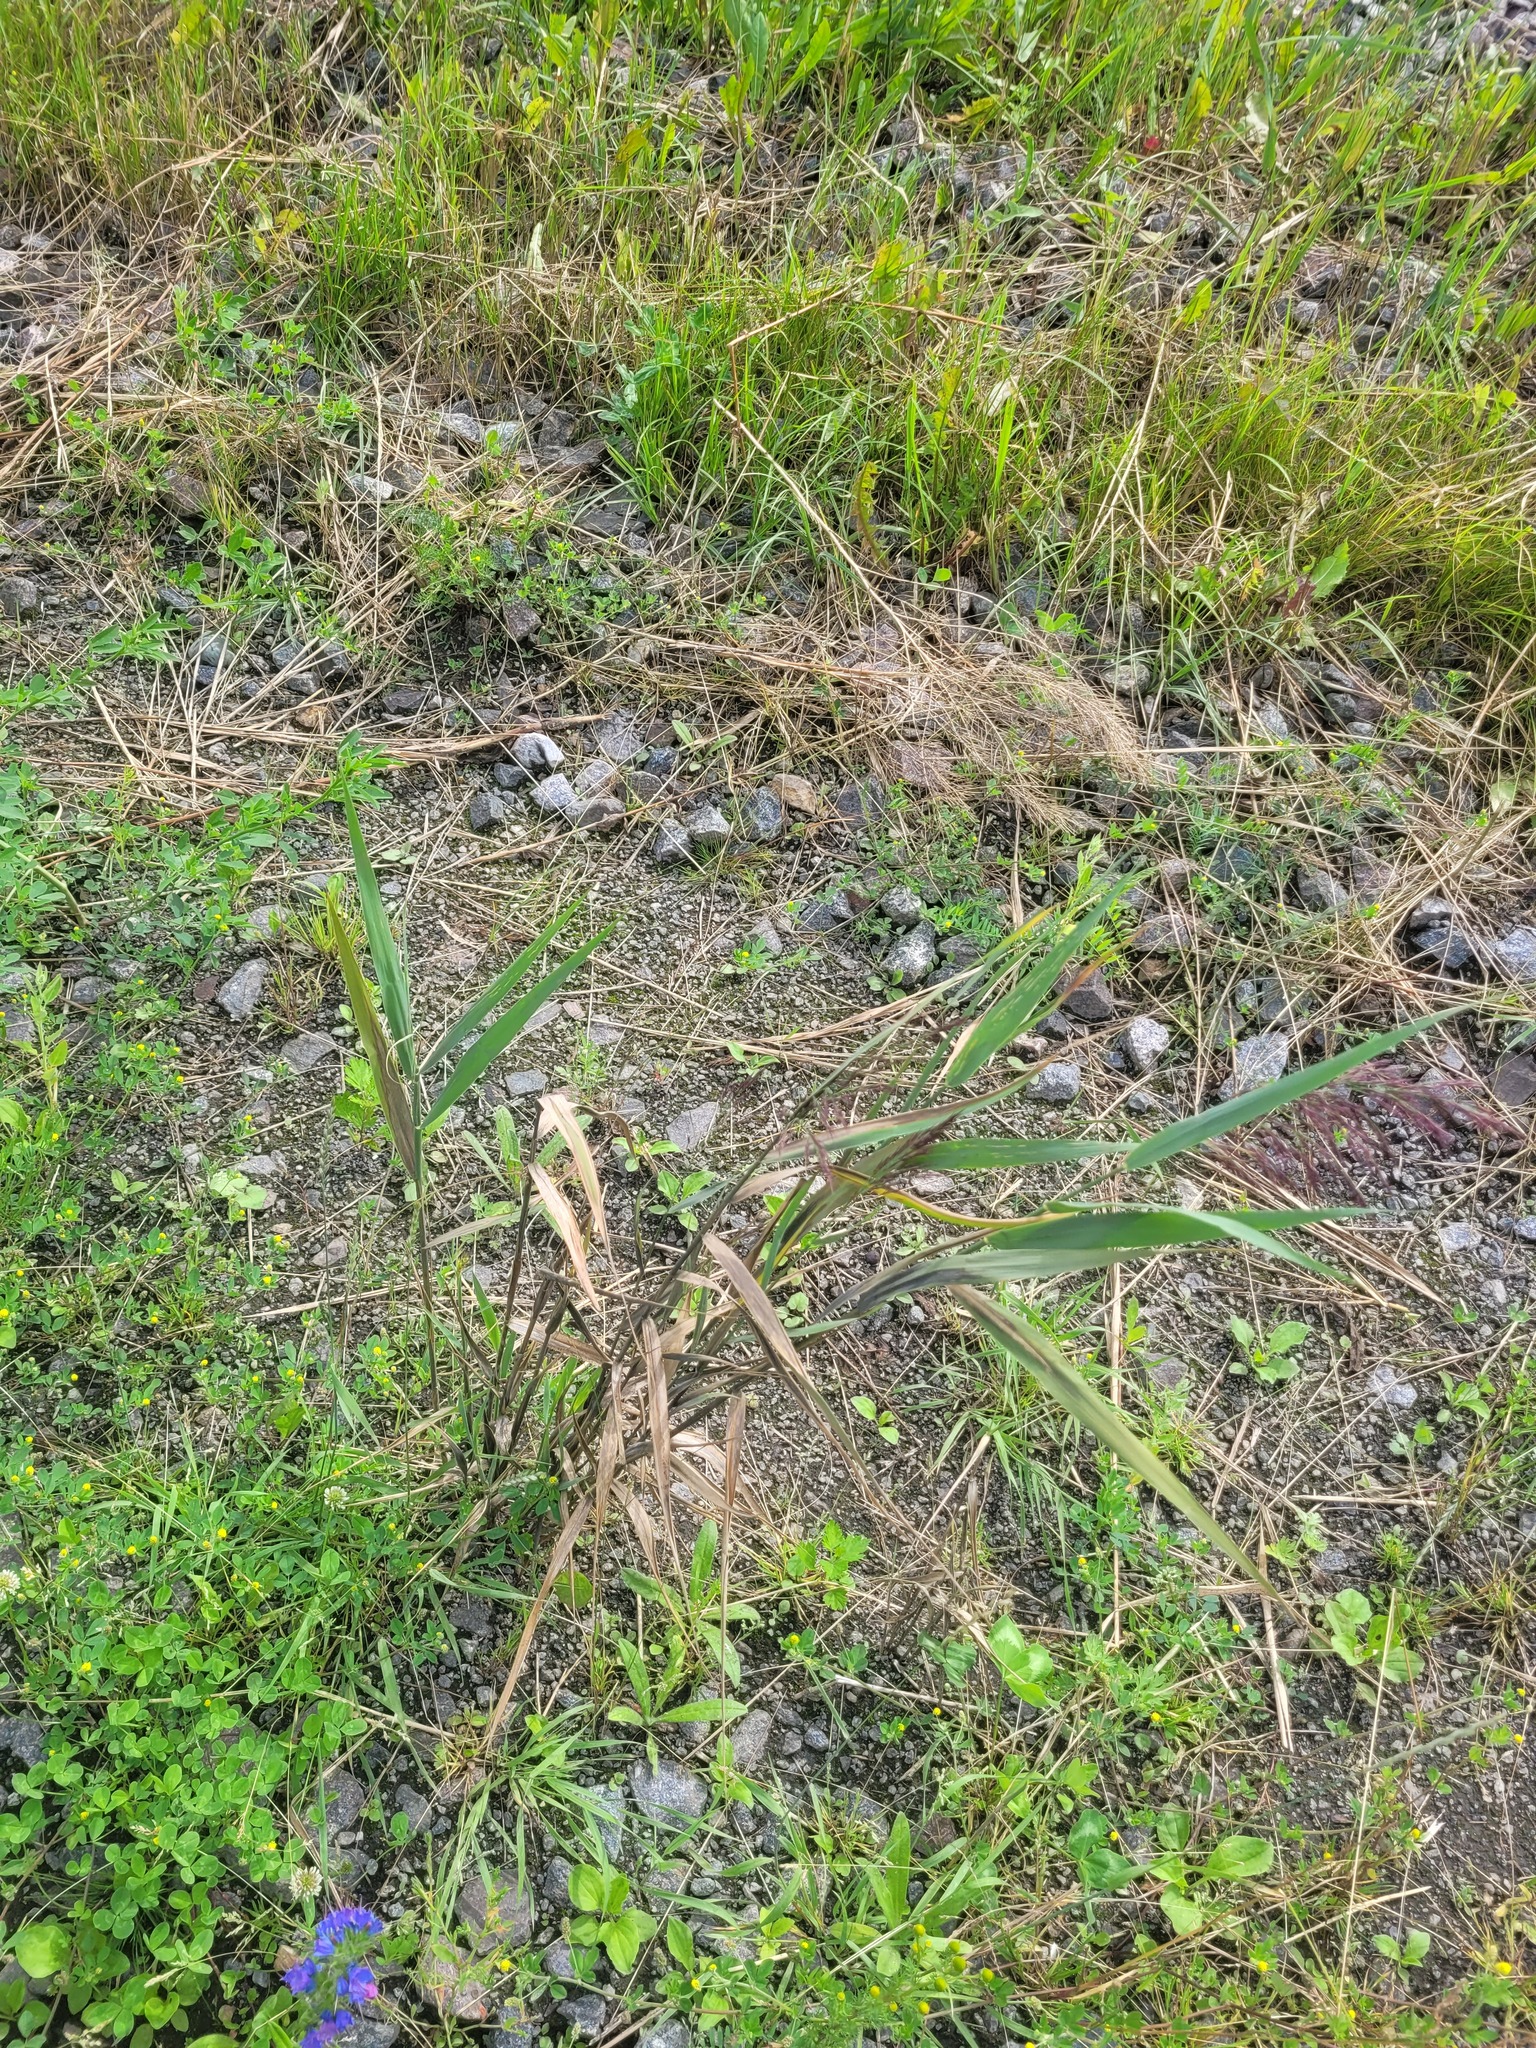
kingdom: Plantae
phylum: Tracheophyta
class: Liliopsida
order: Poales
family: Poaceae
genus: Phragmites
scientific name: Phragmites australis
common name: Common reed
